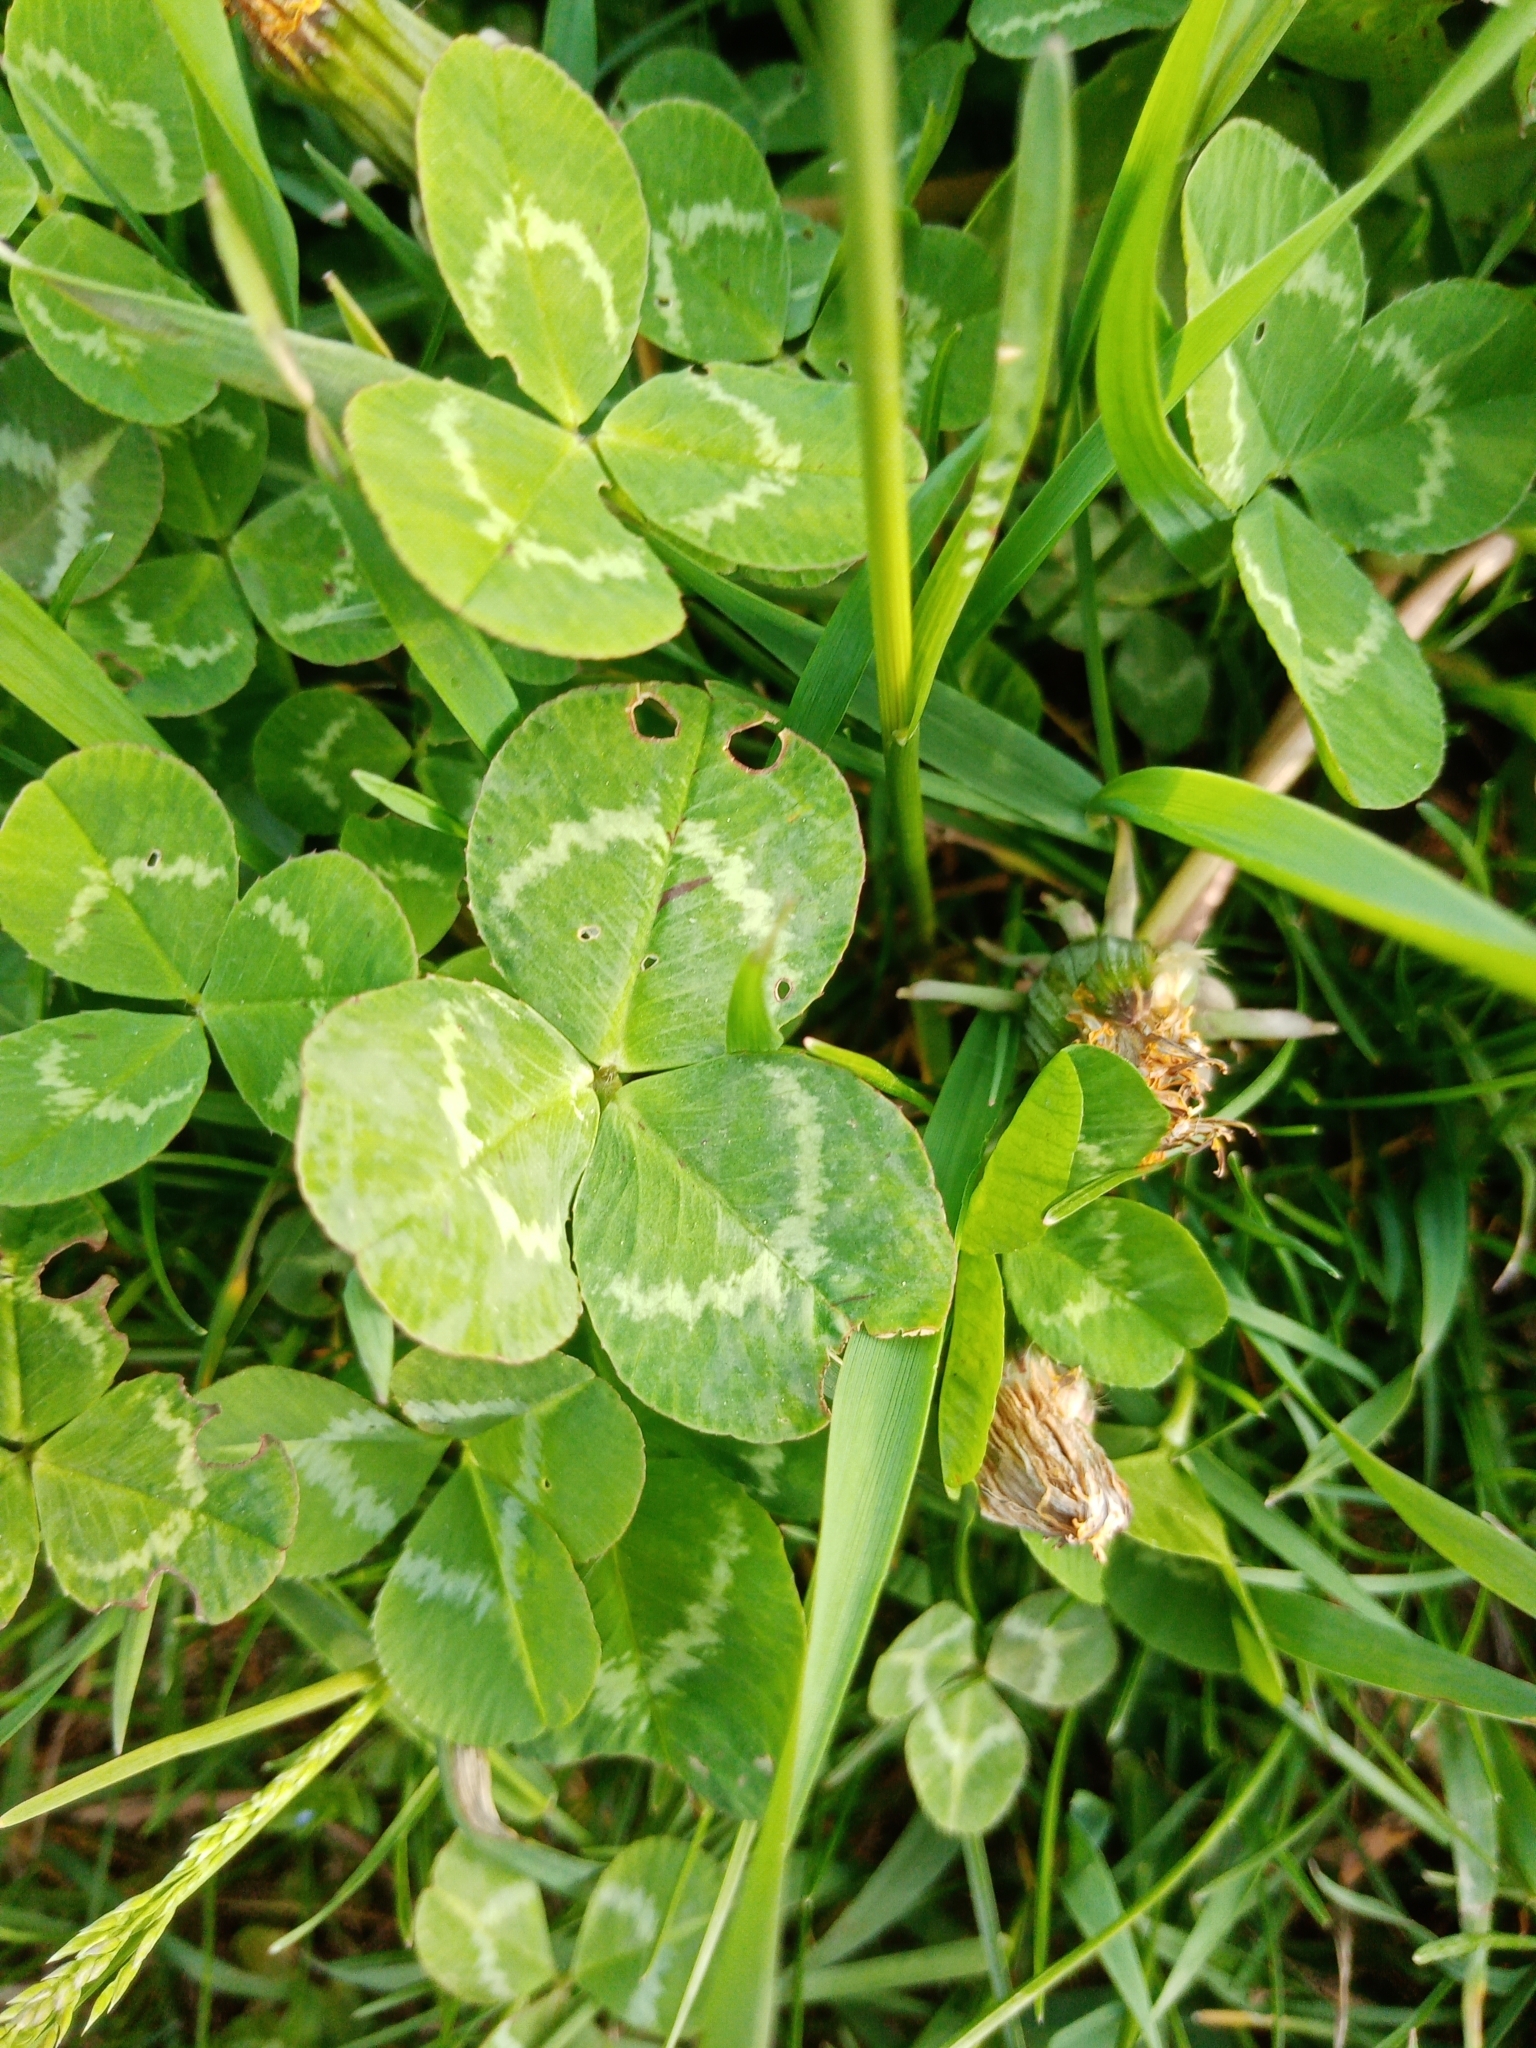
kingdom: Plantae
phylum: Tracheophyta
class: Magnoliopsida
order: Fabales
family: Fabaceae
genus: Trifolium
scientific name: Trifolium repens
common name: White clover
